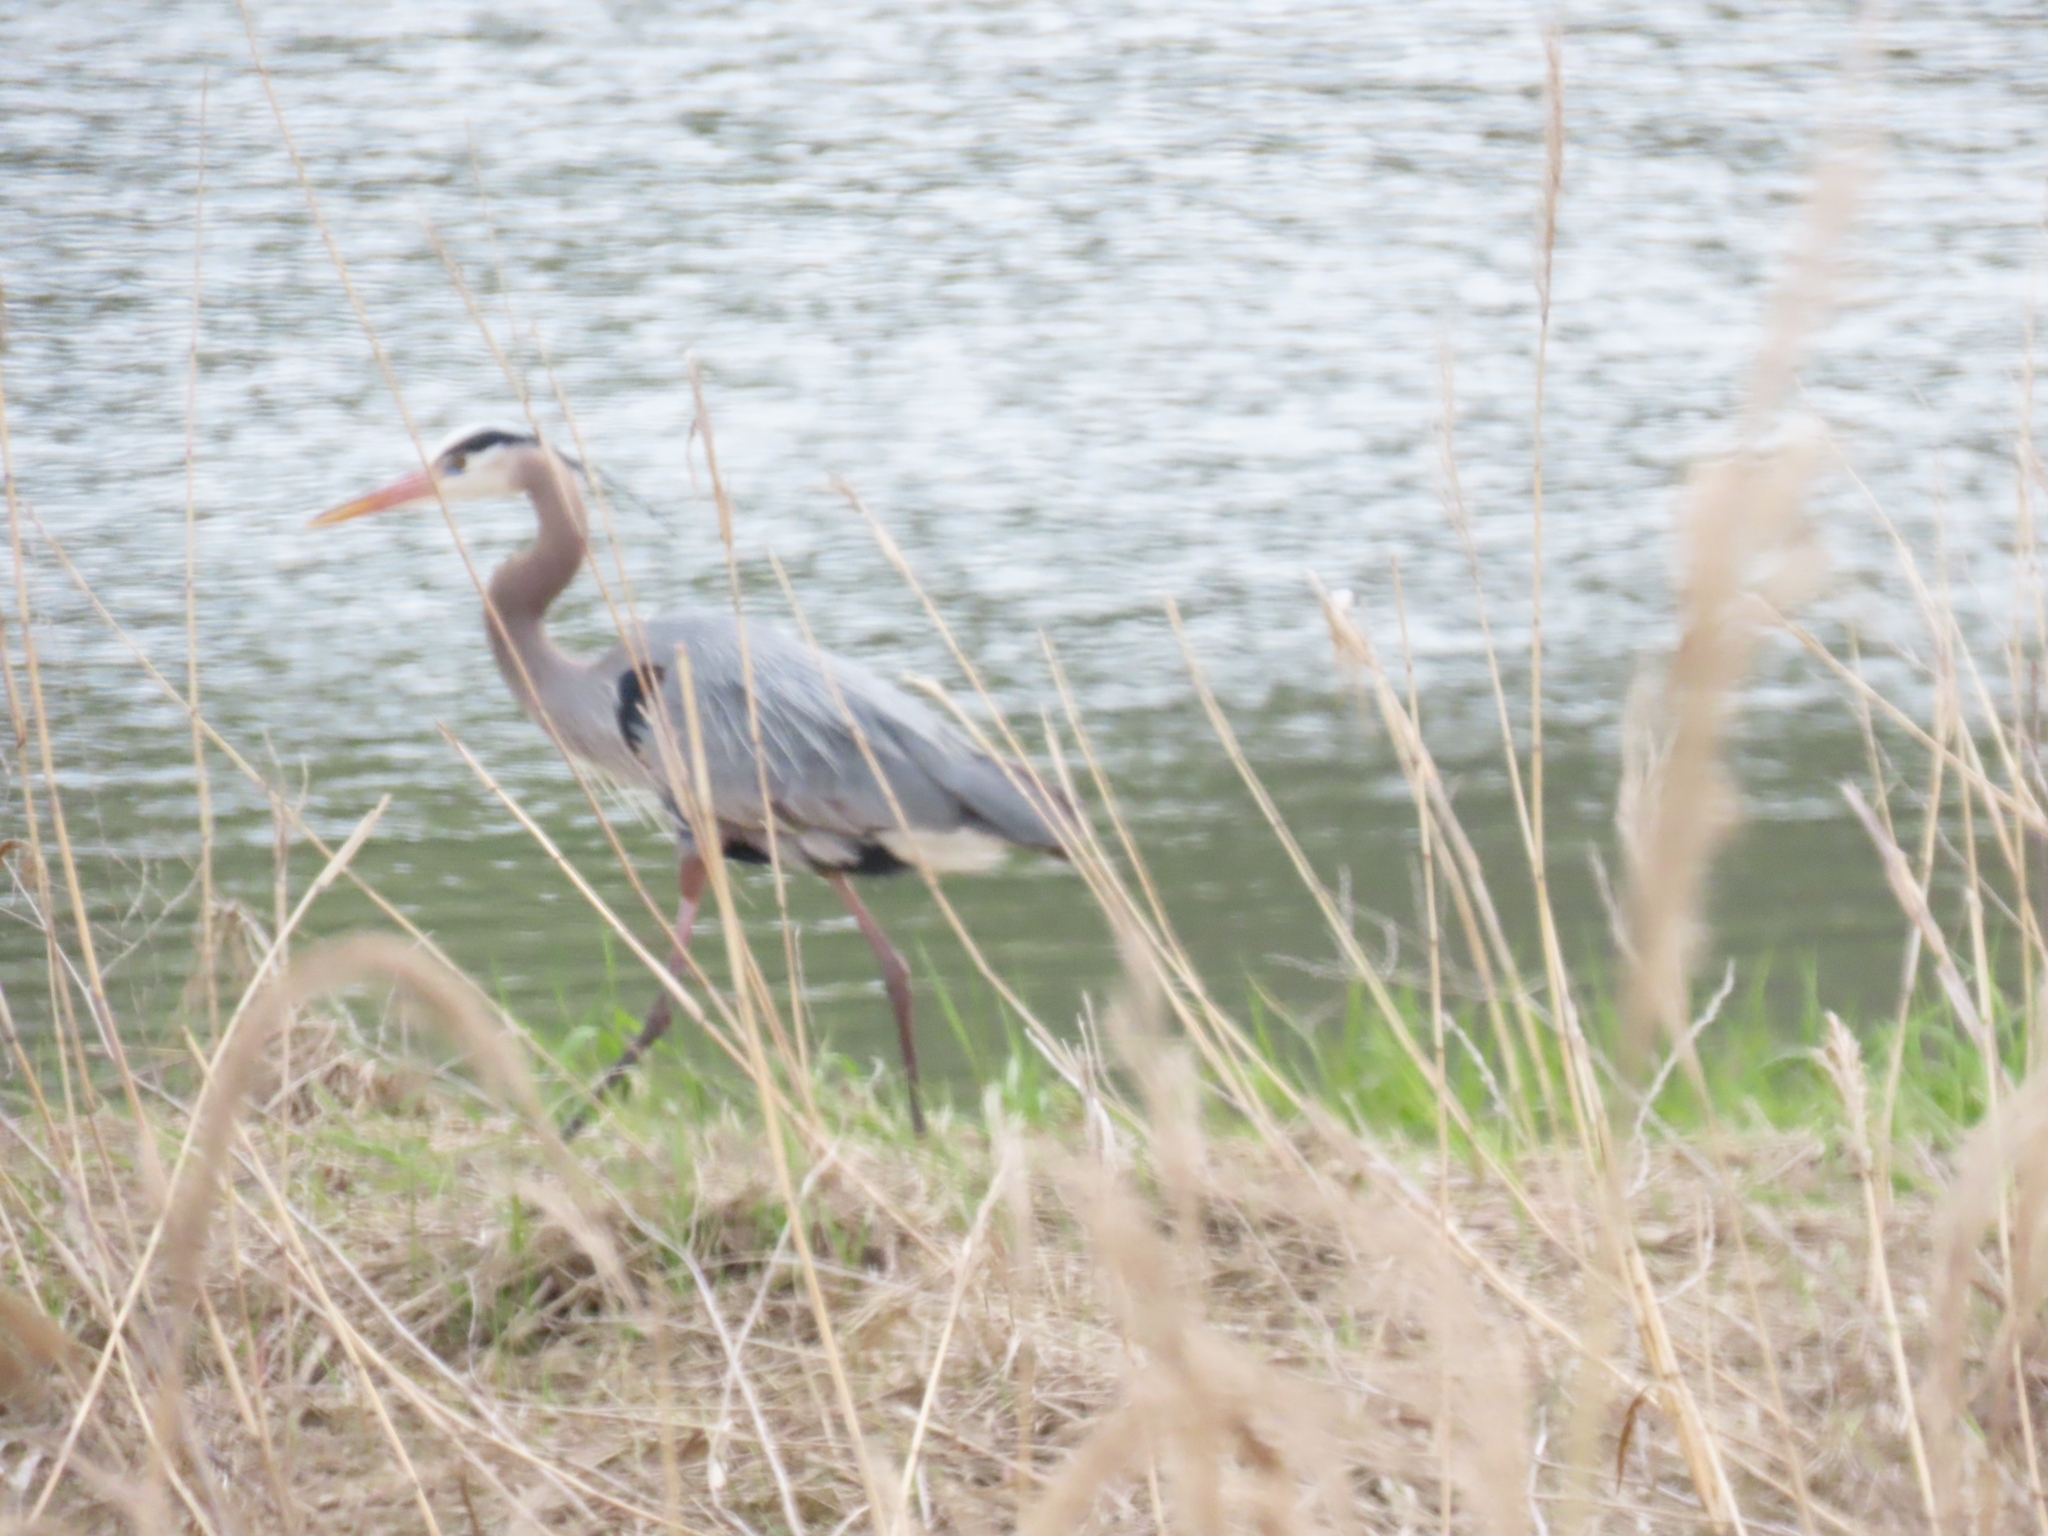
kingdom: Animalia
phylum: Chordata
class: Aves
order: Pelecaniformes
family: Ardeidae
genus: Ardea
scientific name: Ardea herodias
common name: Great blue heron
